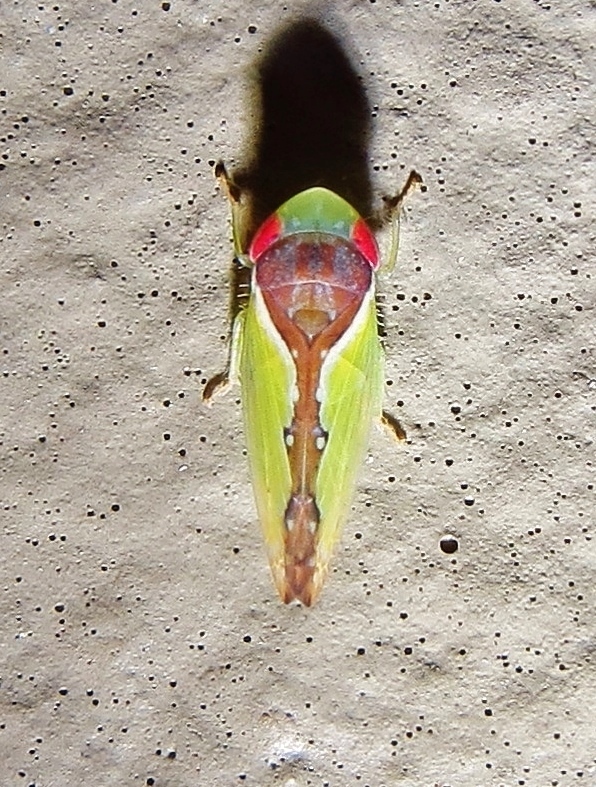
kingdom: Animalia
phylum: Arthropoda
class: Insecta
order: Hemiptera
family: Cicadellidae
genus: Omansobara ing
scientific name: Omansobara ing Omansobara palliolata
